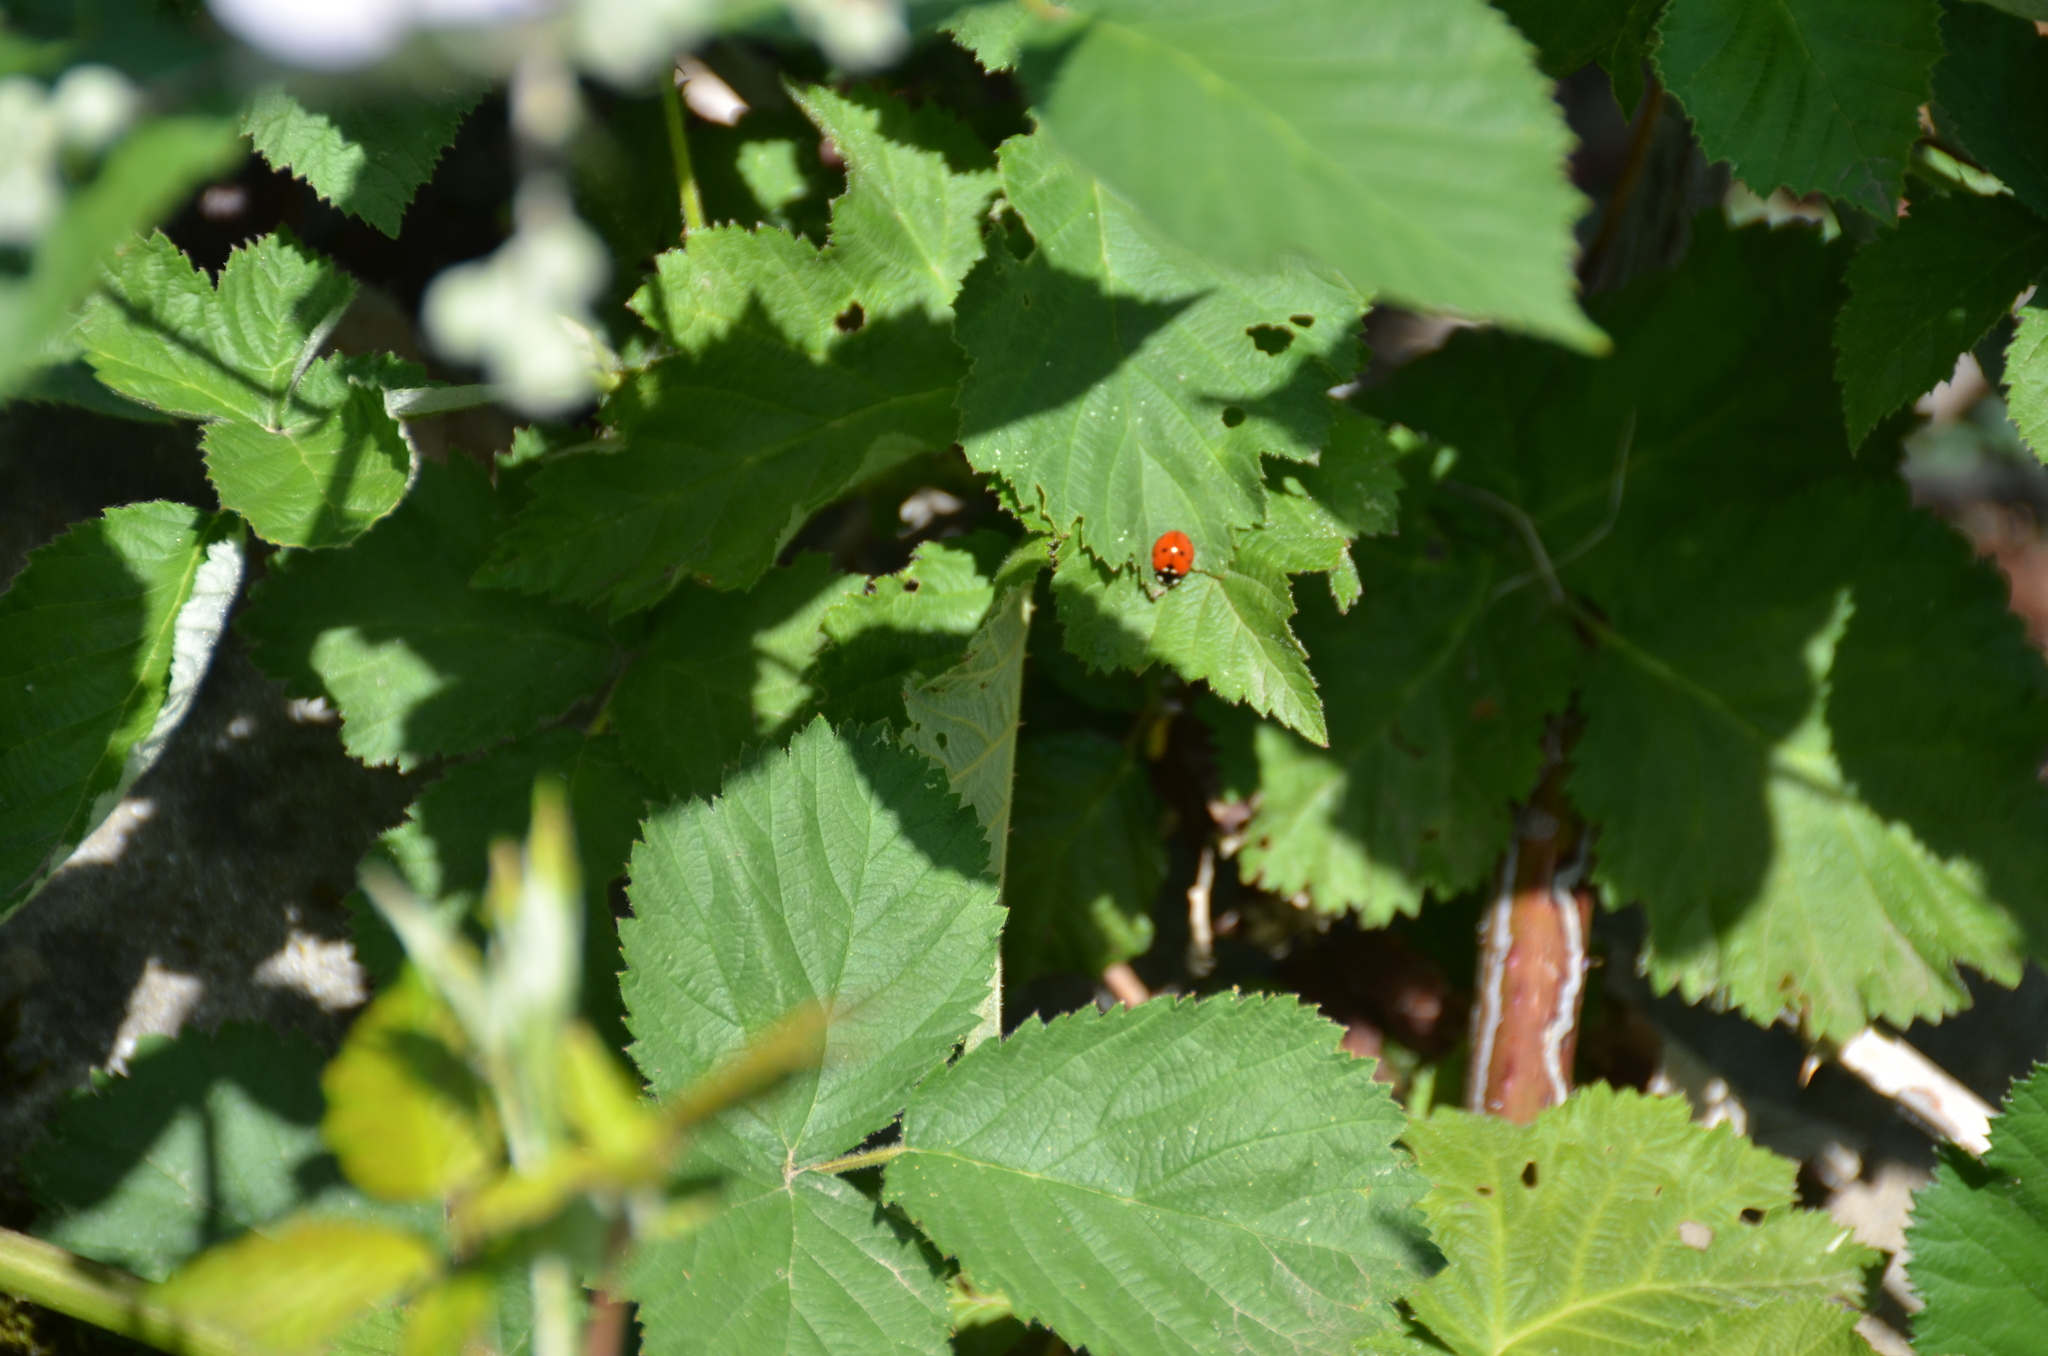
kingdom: Animalia
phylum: Arthropoda
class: Insecta
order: Coleoptera
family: Coccinellidae
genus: Coccinella
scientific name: Coccinella septempunctata
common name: Sevenspotted lady beetle
